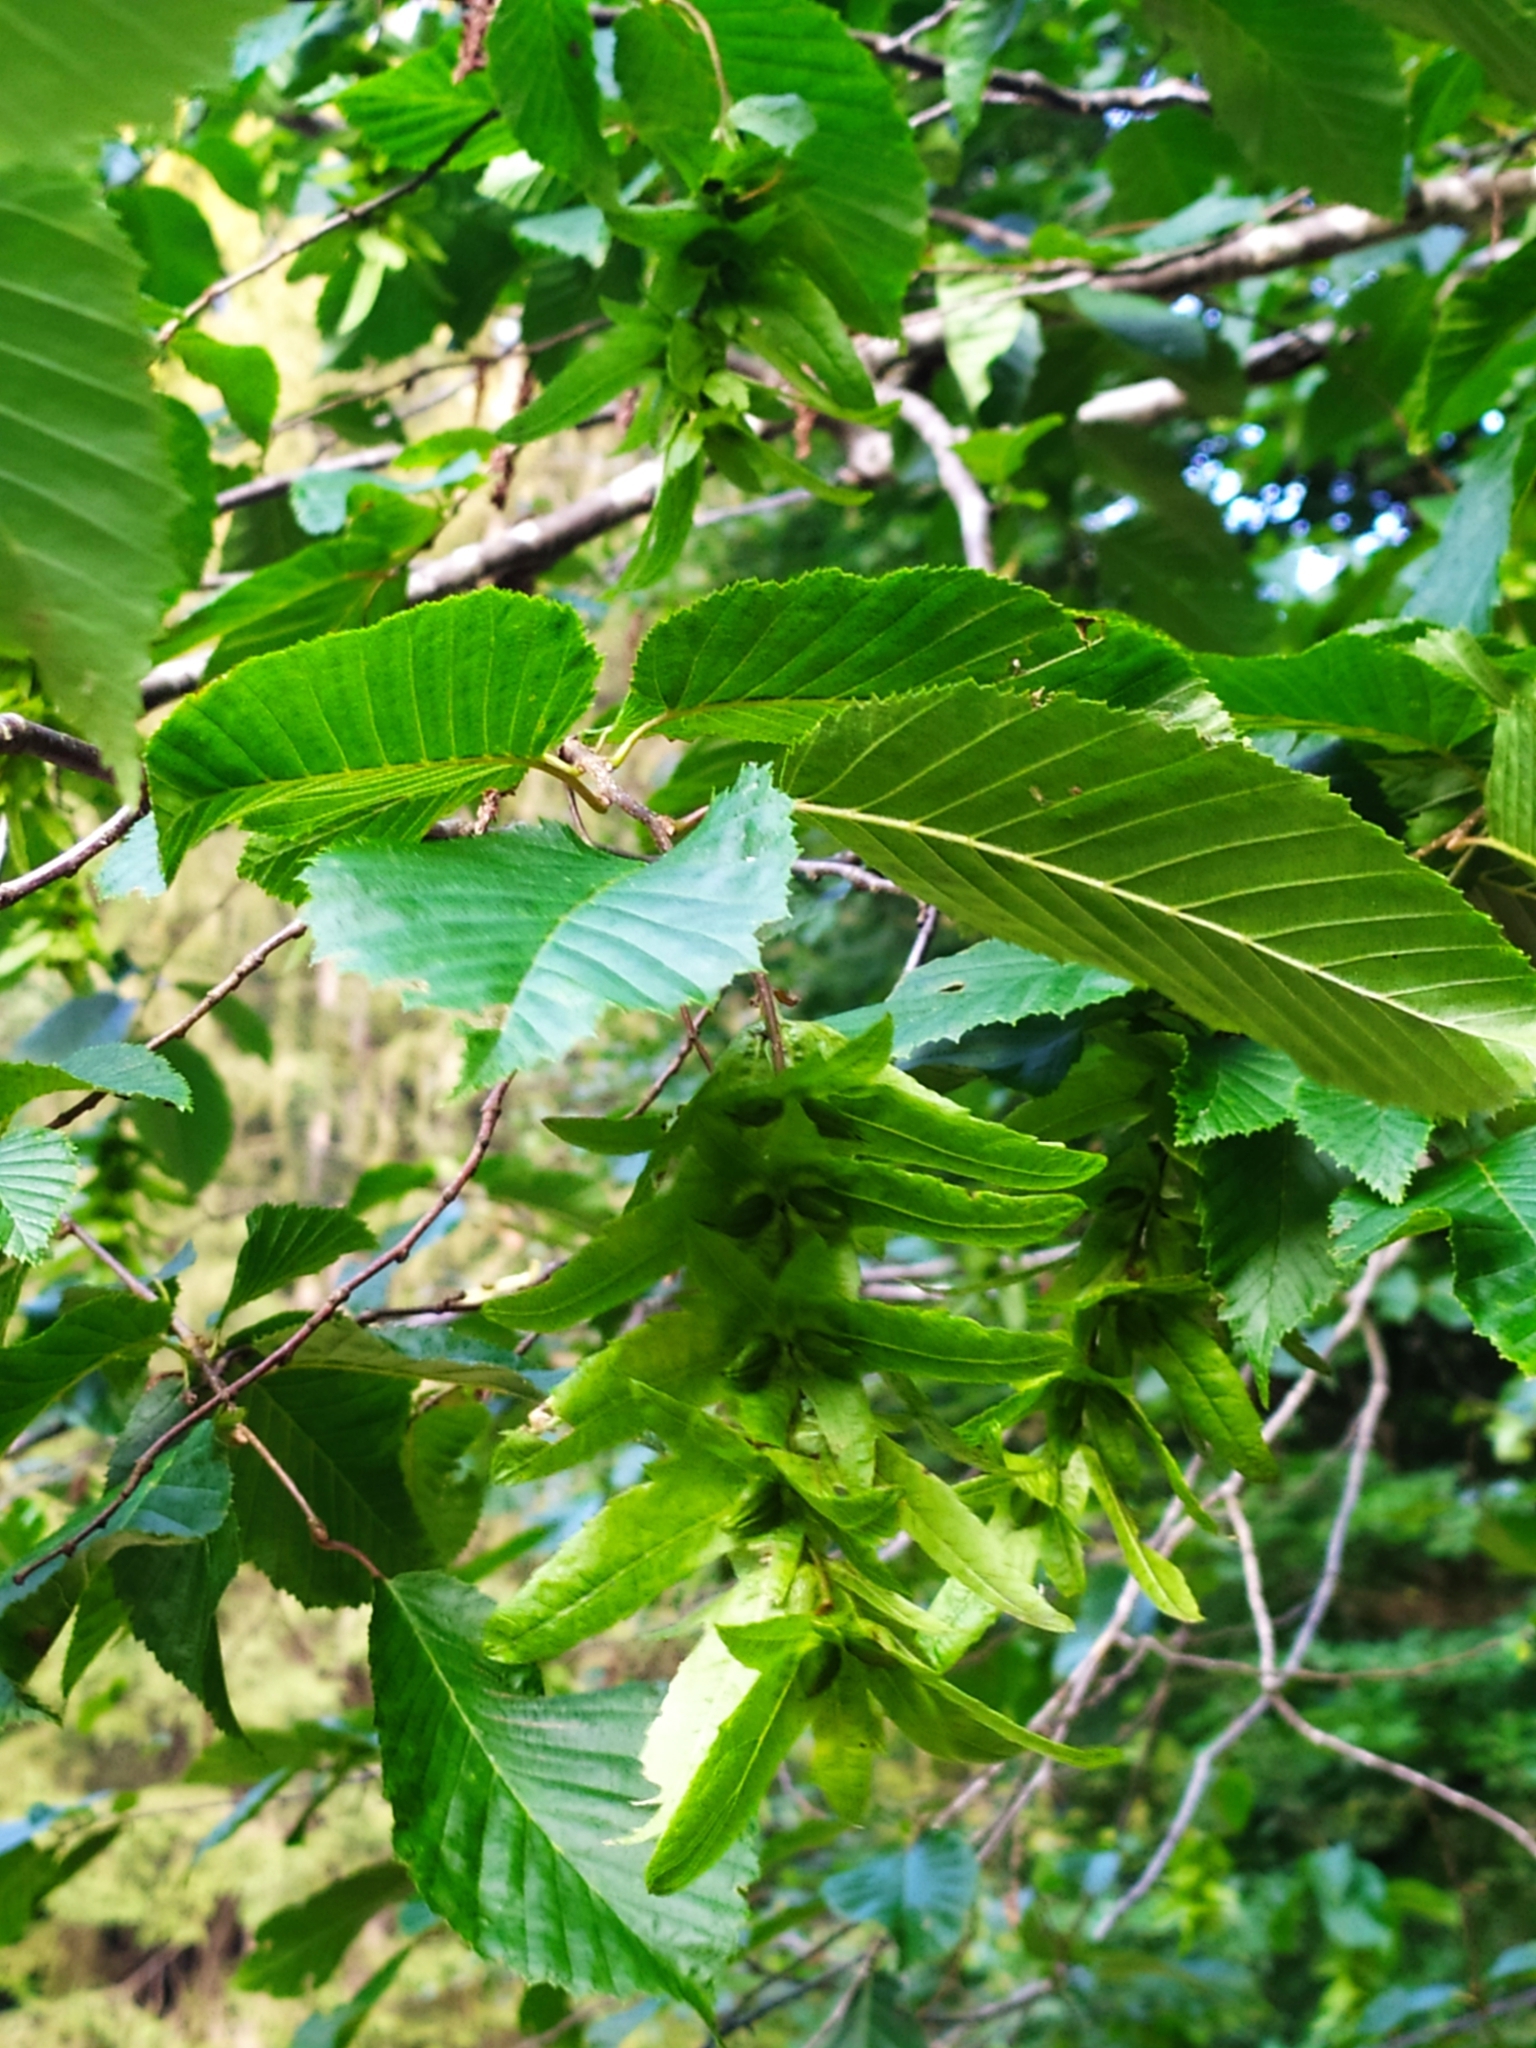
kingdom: Plantae
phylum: Tracheophyta
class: Magnoliopsida
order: Fagales
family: Betulaceae
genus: Carpinus
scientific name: Carpinus betulus
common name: Hornbeam
